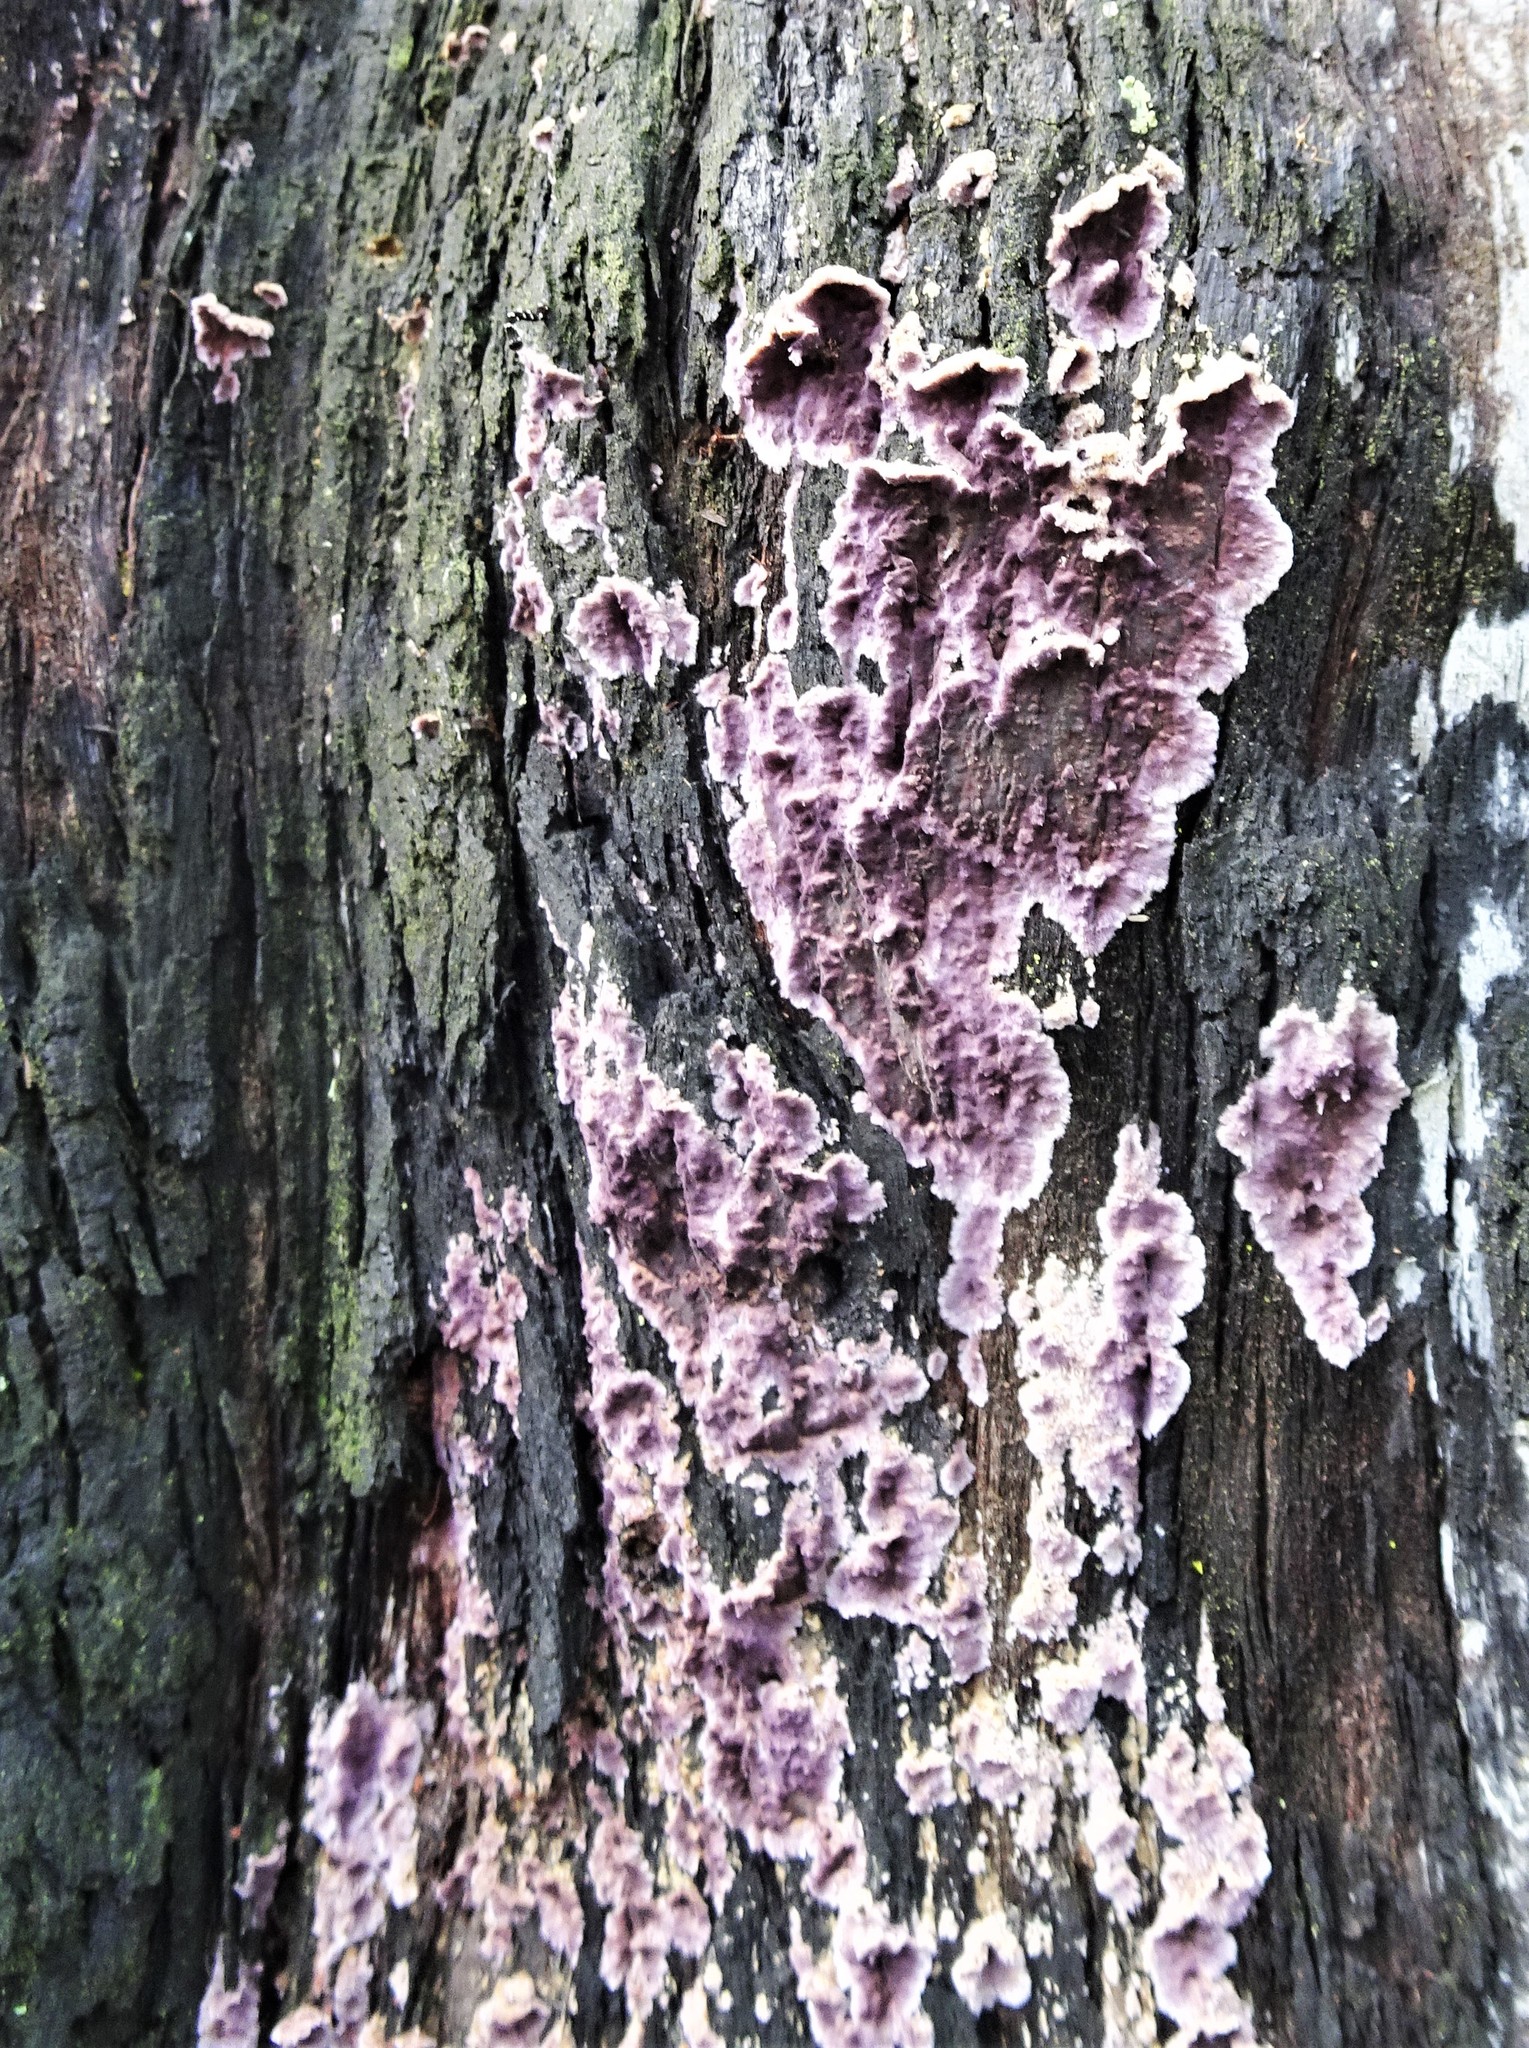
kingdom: Fungi
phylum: Basidiomycota
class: Agaricomycetes
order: Agaricales
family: Cyphellaceae
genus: Chondrostereum
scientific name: Chondrostereum purpureum
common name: Silver leaf disease
